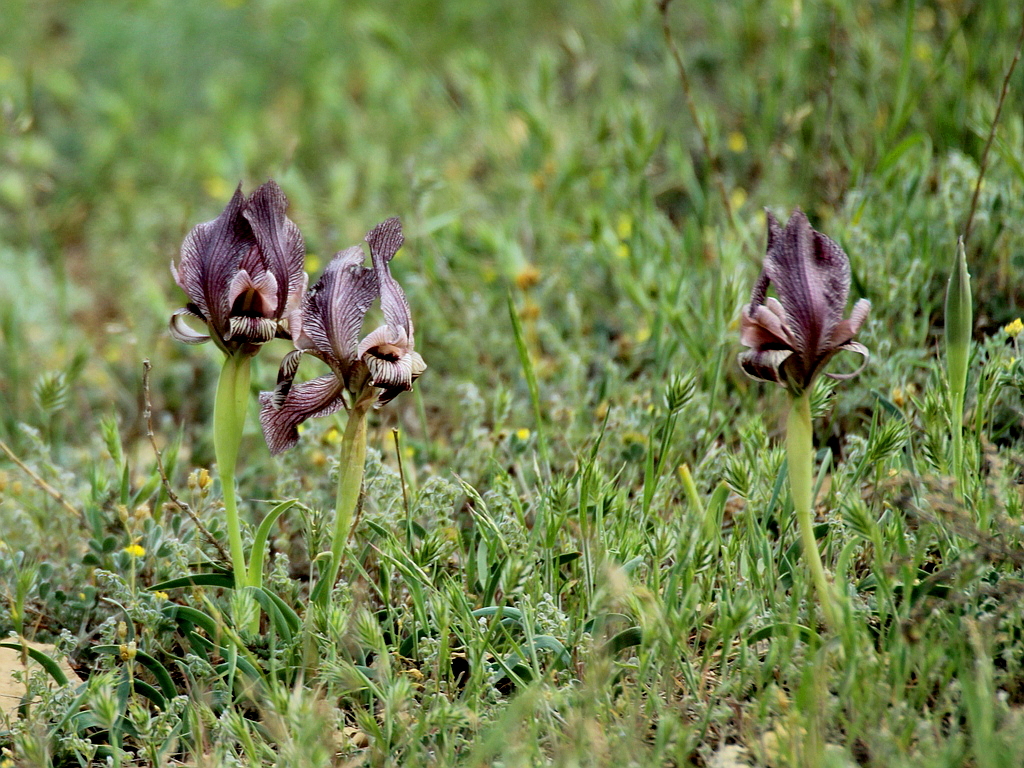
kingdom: Plantae
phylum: Tracheophyta
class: Liliopsida
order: Asparagales
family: Iridaceae
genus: Iris
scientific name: Iris acutiloba
